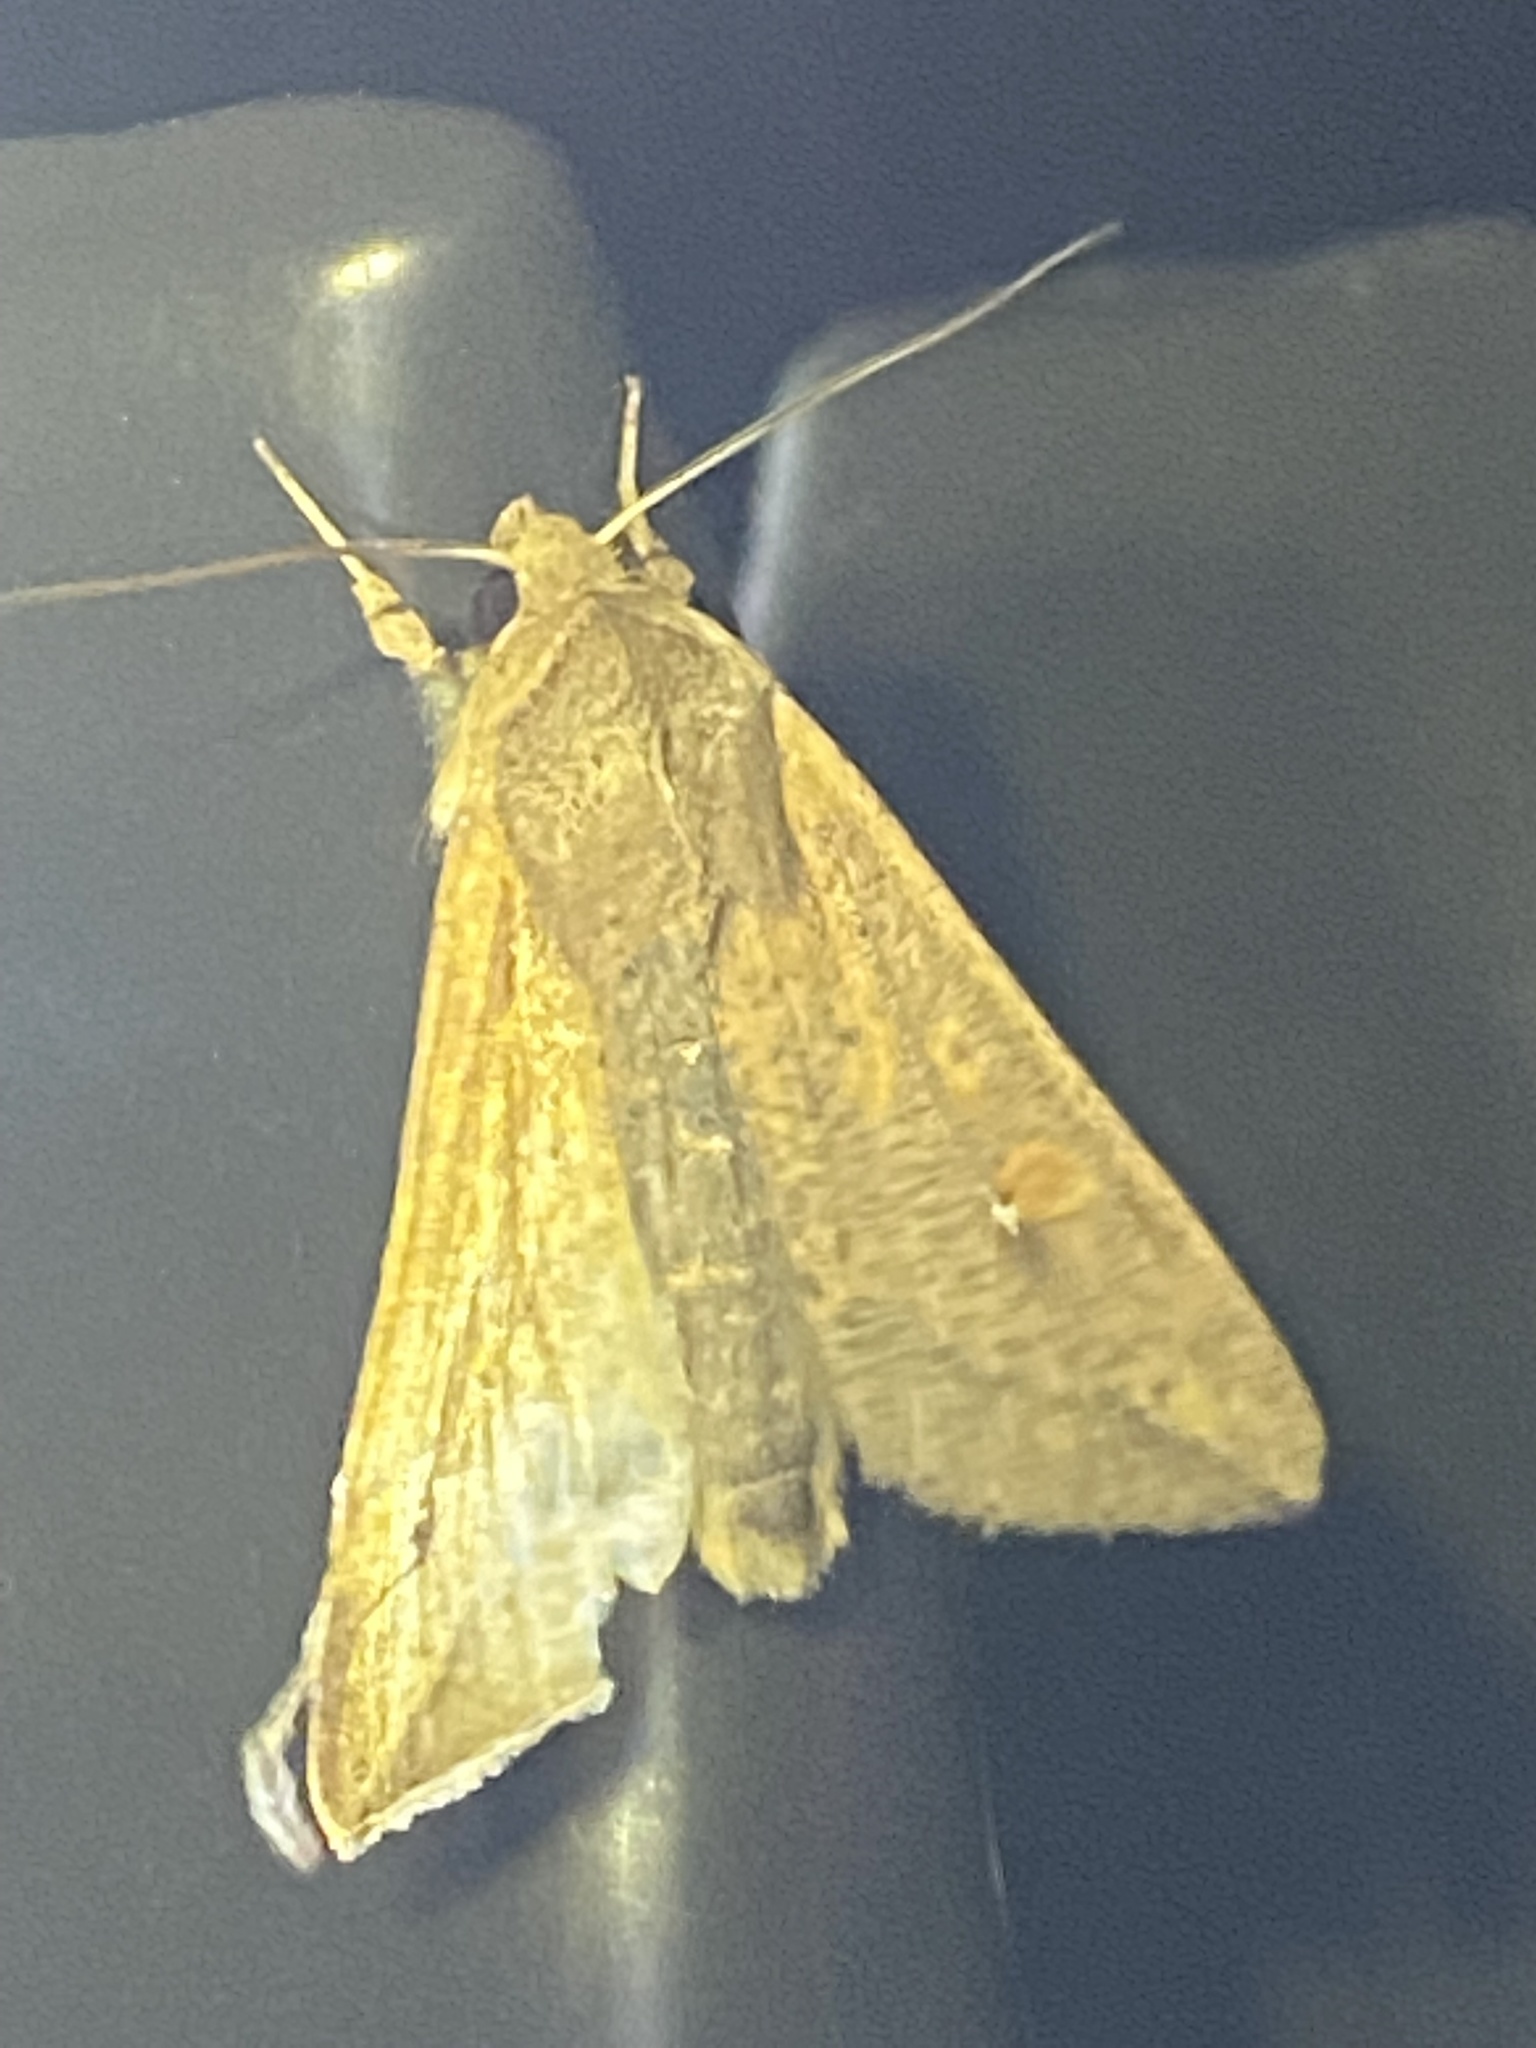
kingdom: Animalia
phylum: Arthropoda
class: Insecta
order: Lepidoptera
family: Noctuidae
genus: Mythimna
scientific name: Mythimna unipuncta
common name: White-speck
